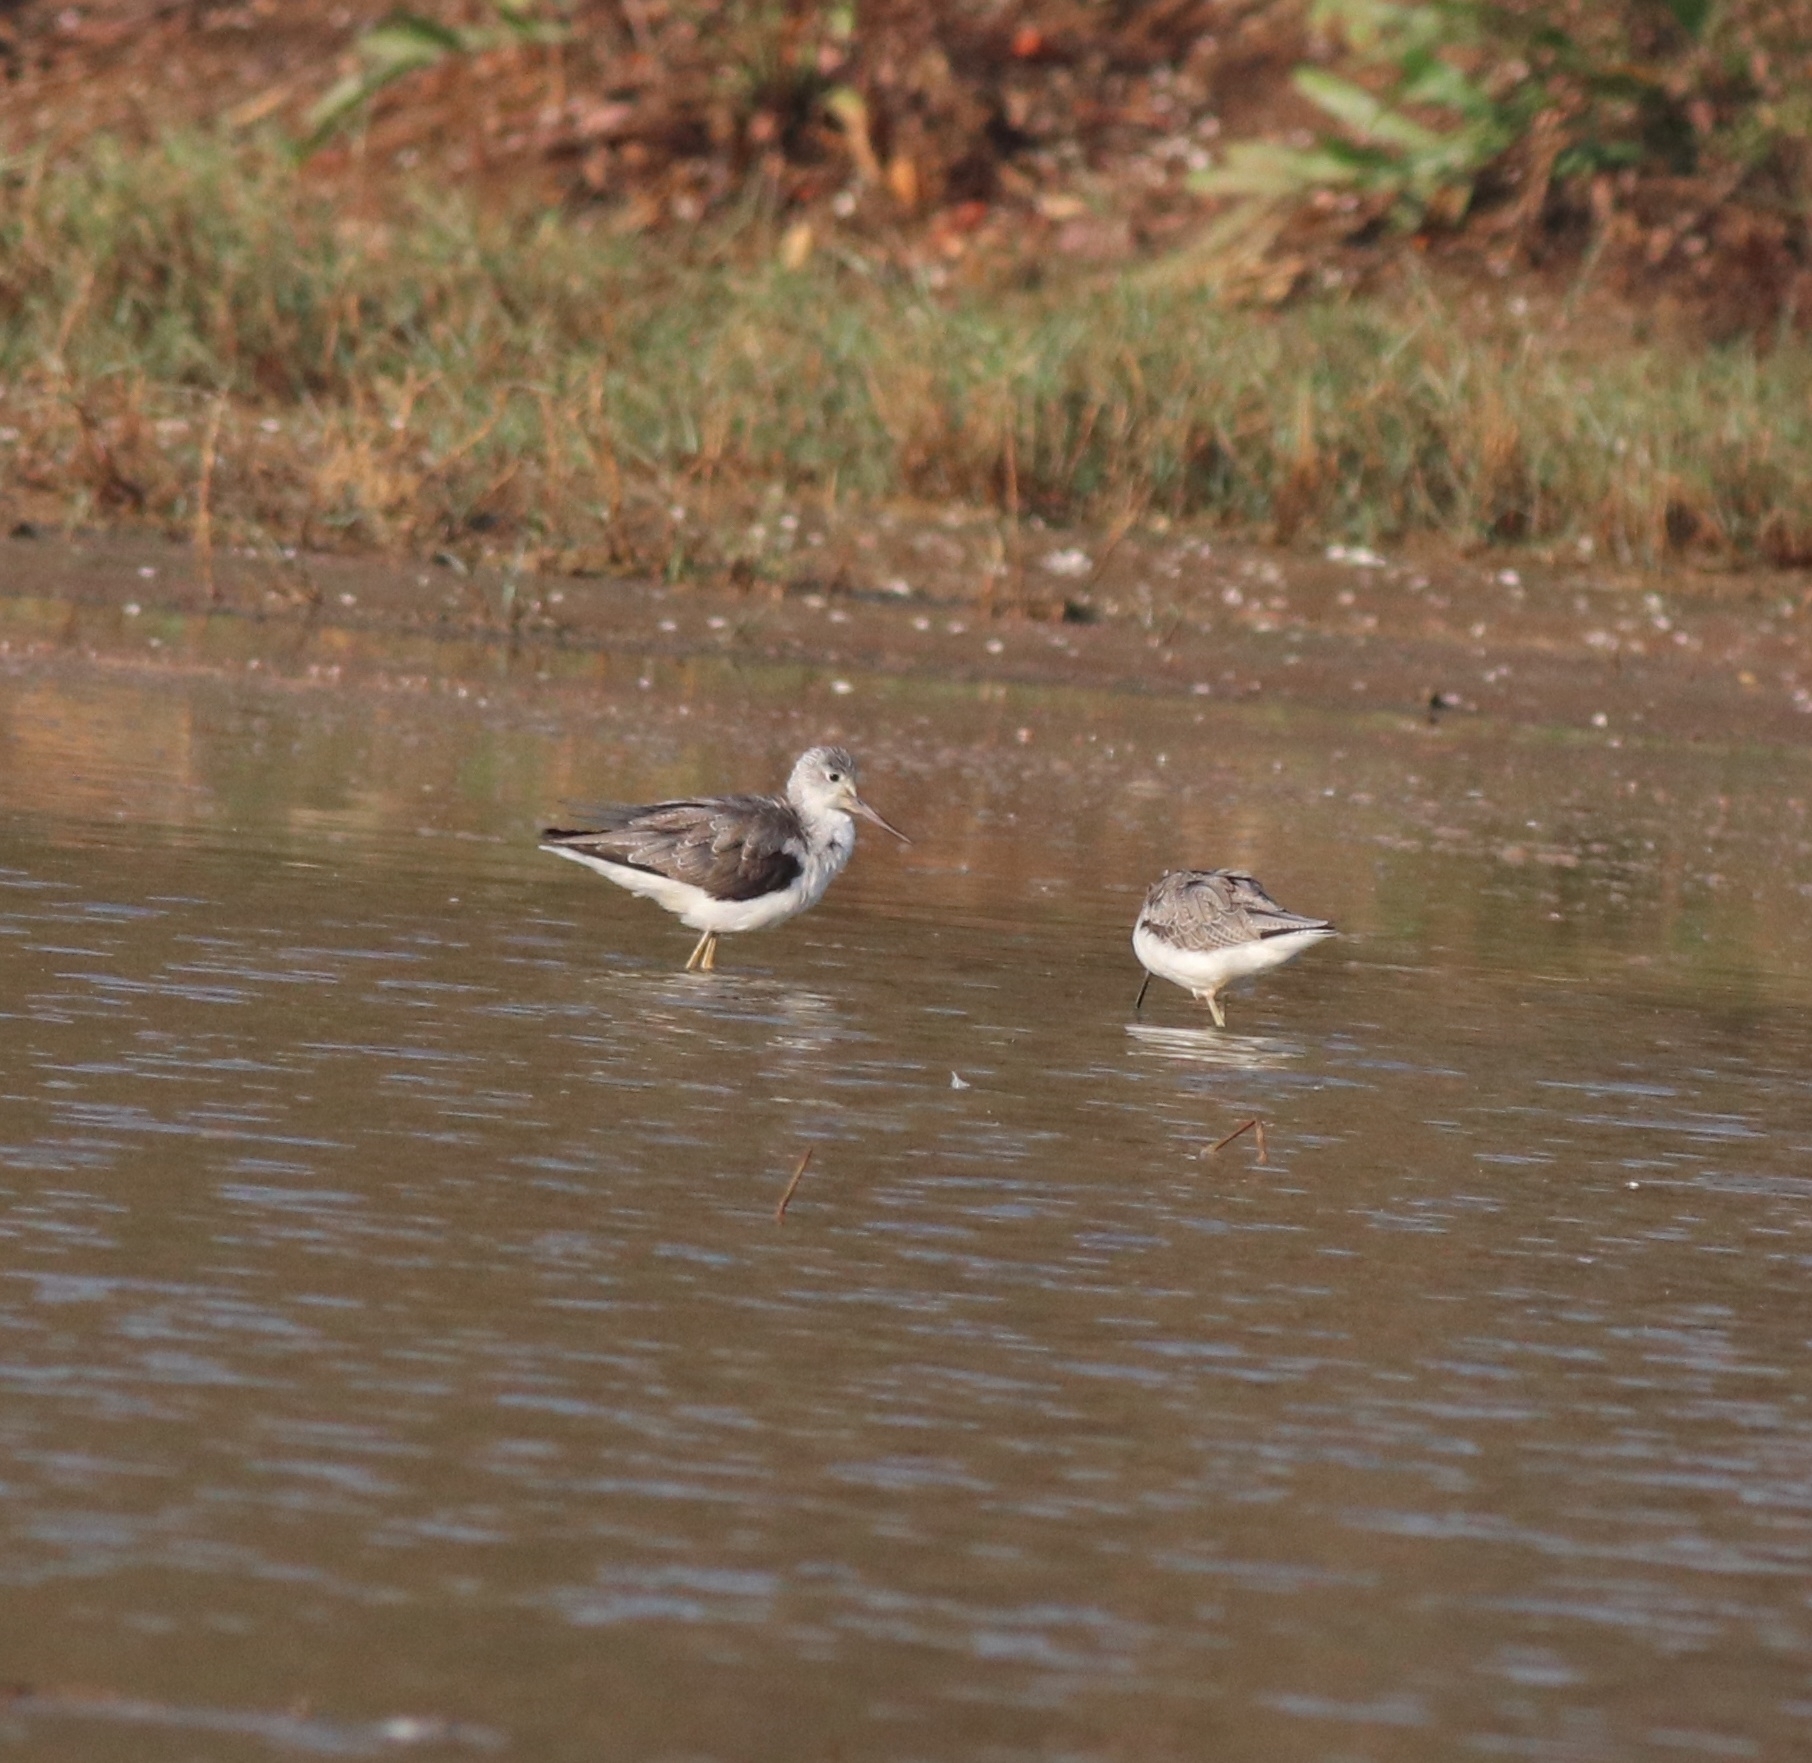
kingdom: Animalia
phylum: Chordata
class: Aves
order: Charadriiformes
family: Scolopacidae
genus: Tringa
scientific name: Tringa nebularia
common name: Common greenshank
